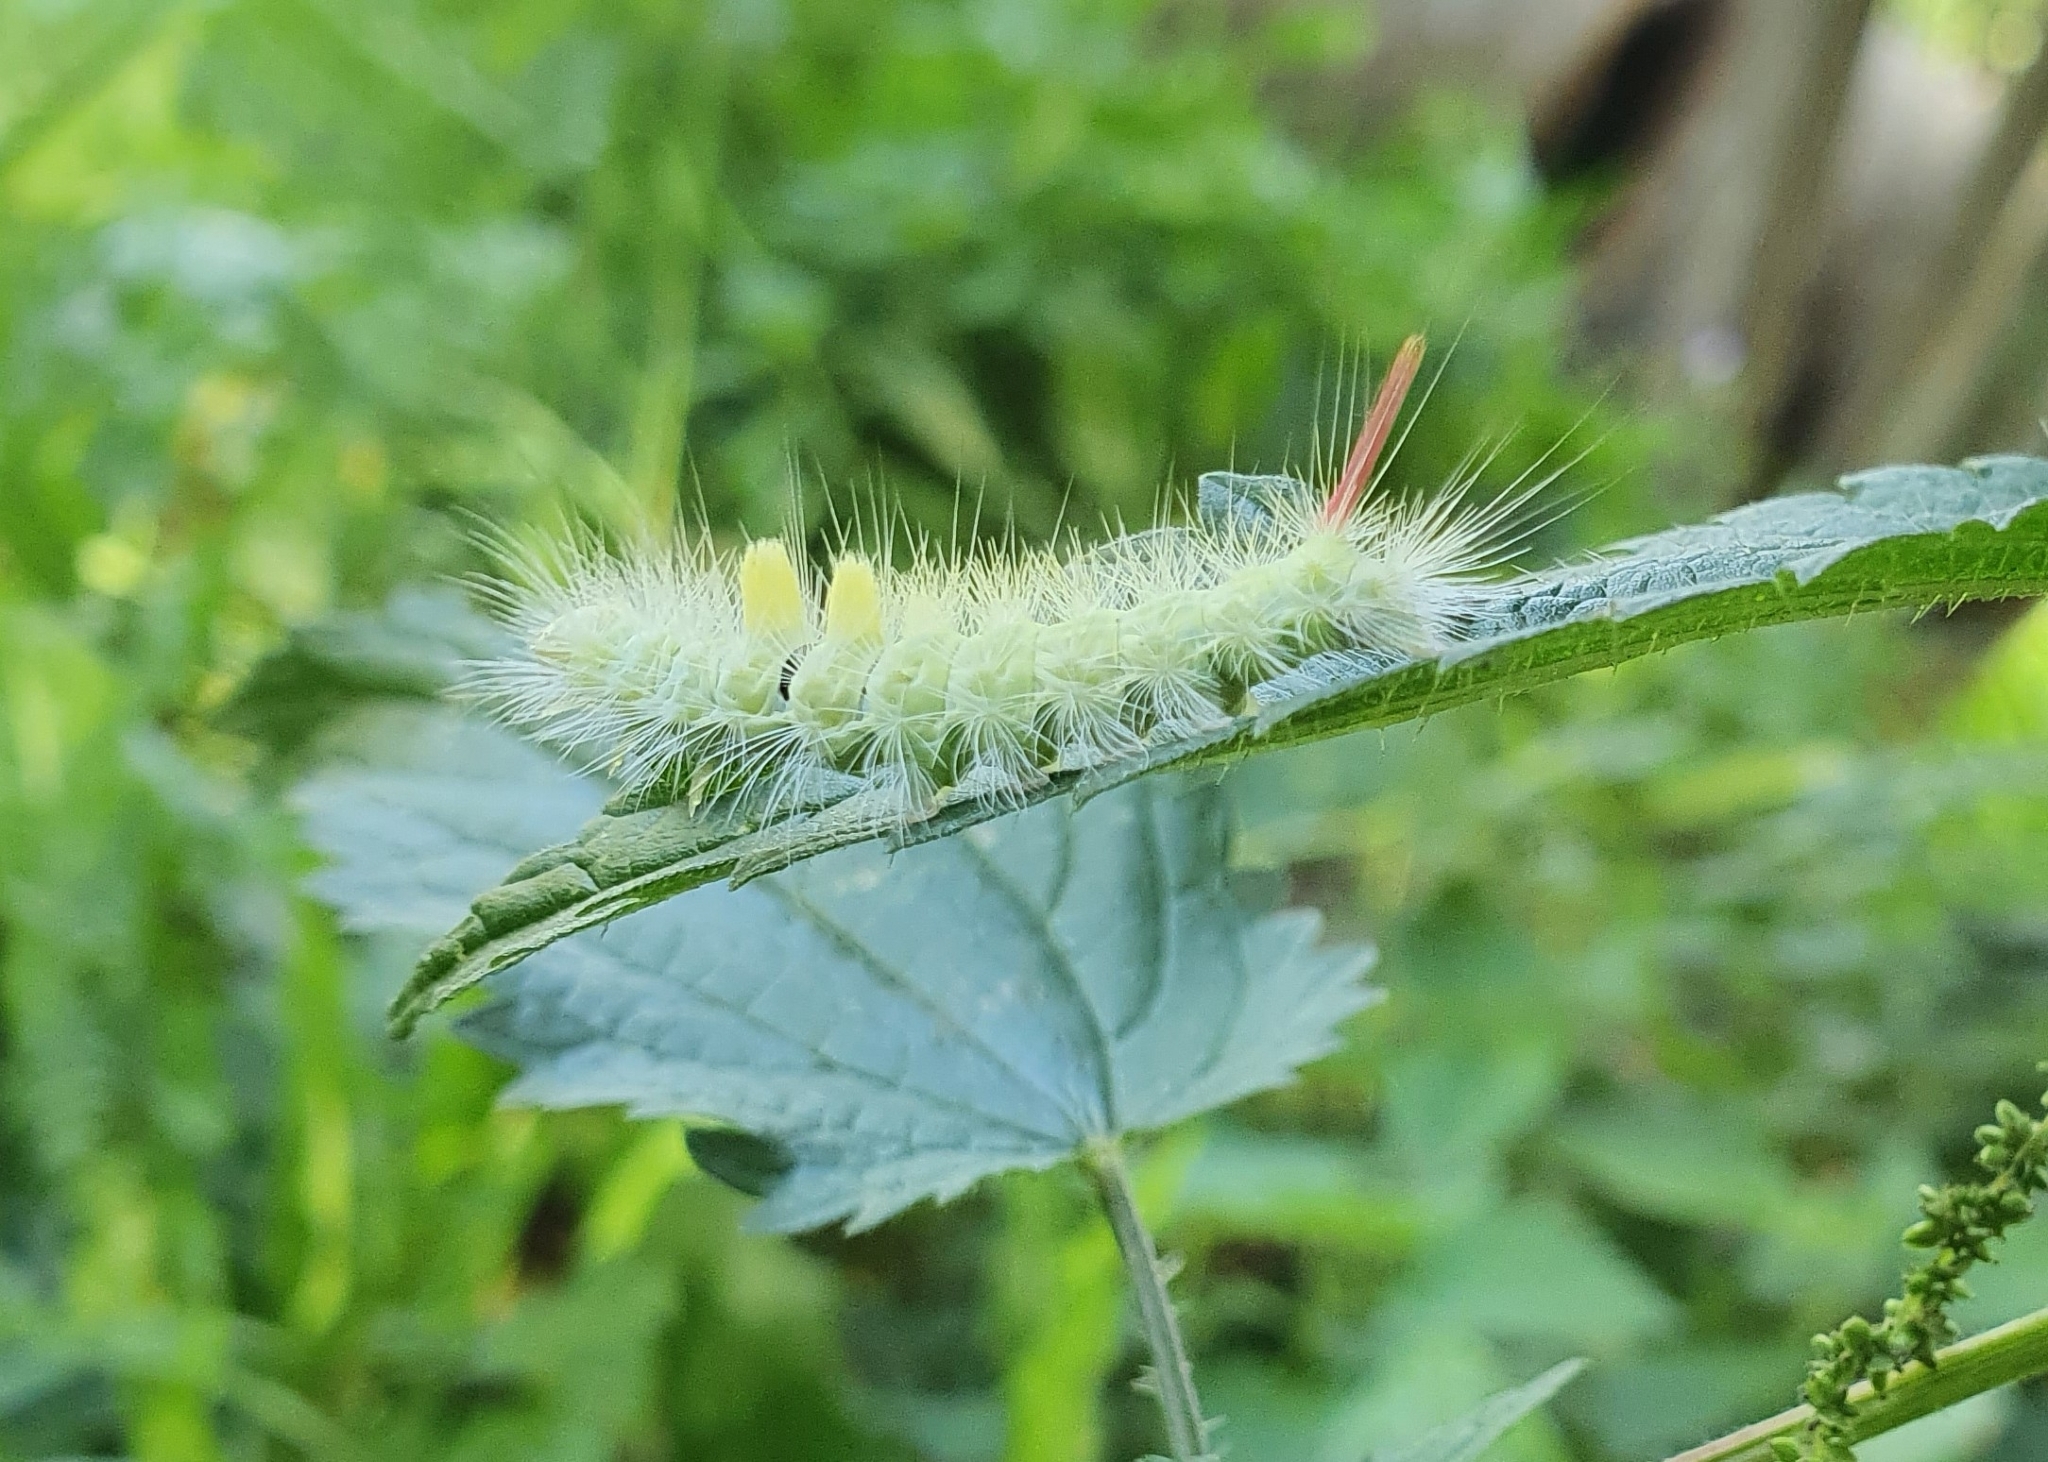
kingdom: Animalia
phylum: Arthropoda
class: Insecta
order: Lepidoptera
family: Erebidae
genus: Calliteara
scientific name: Calliteara pudibunda
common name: Pale tussock
